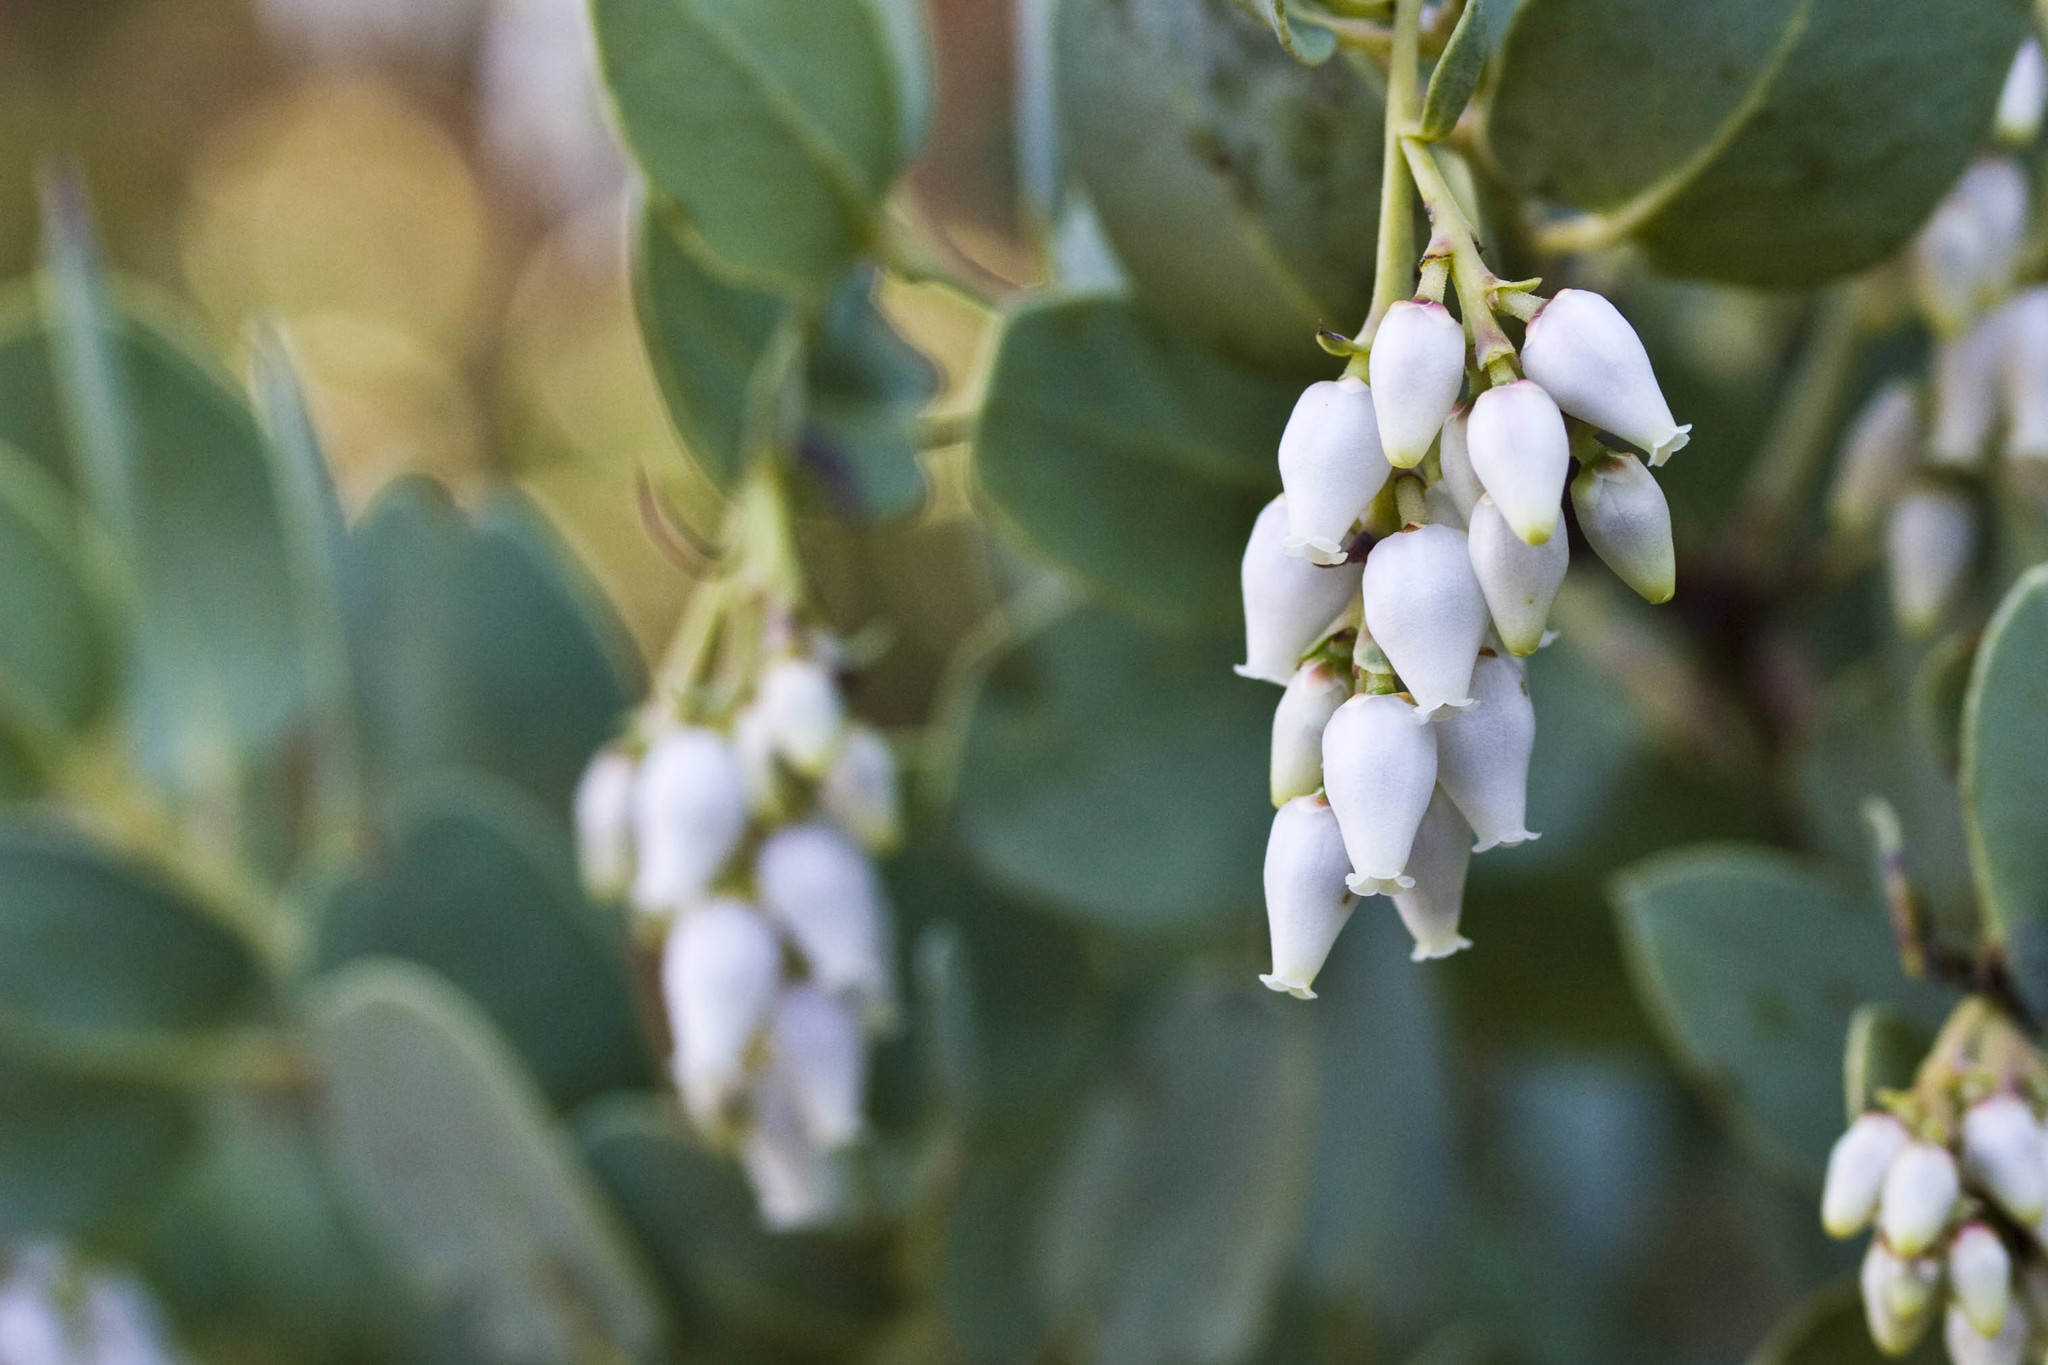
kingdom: Plantae
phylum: Tracheophyta
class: Magnoliopsida
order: Ericales
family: Ericaceae
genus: Arctostaphylos
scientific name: Arctostaphylos glauca
